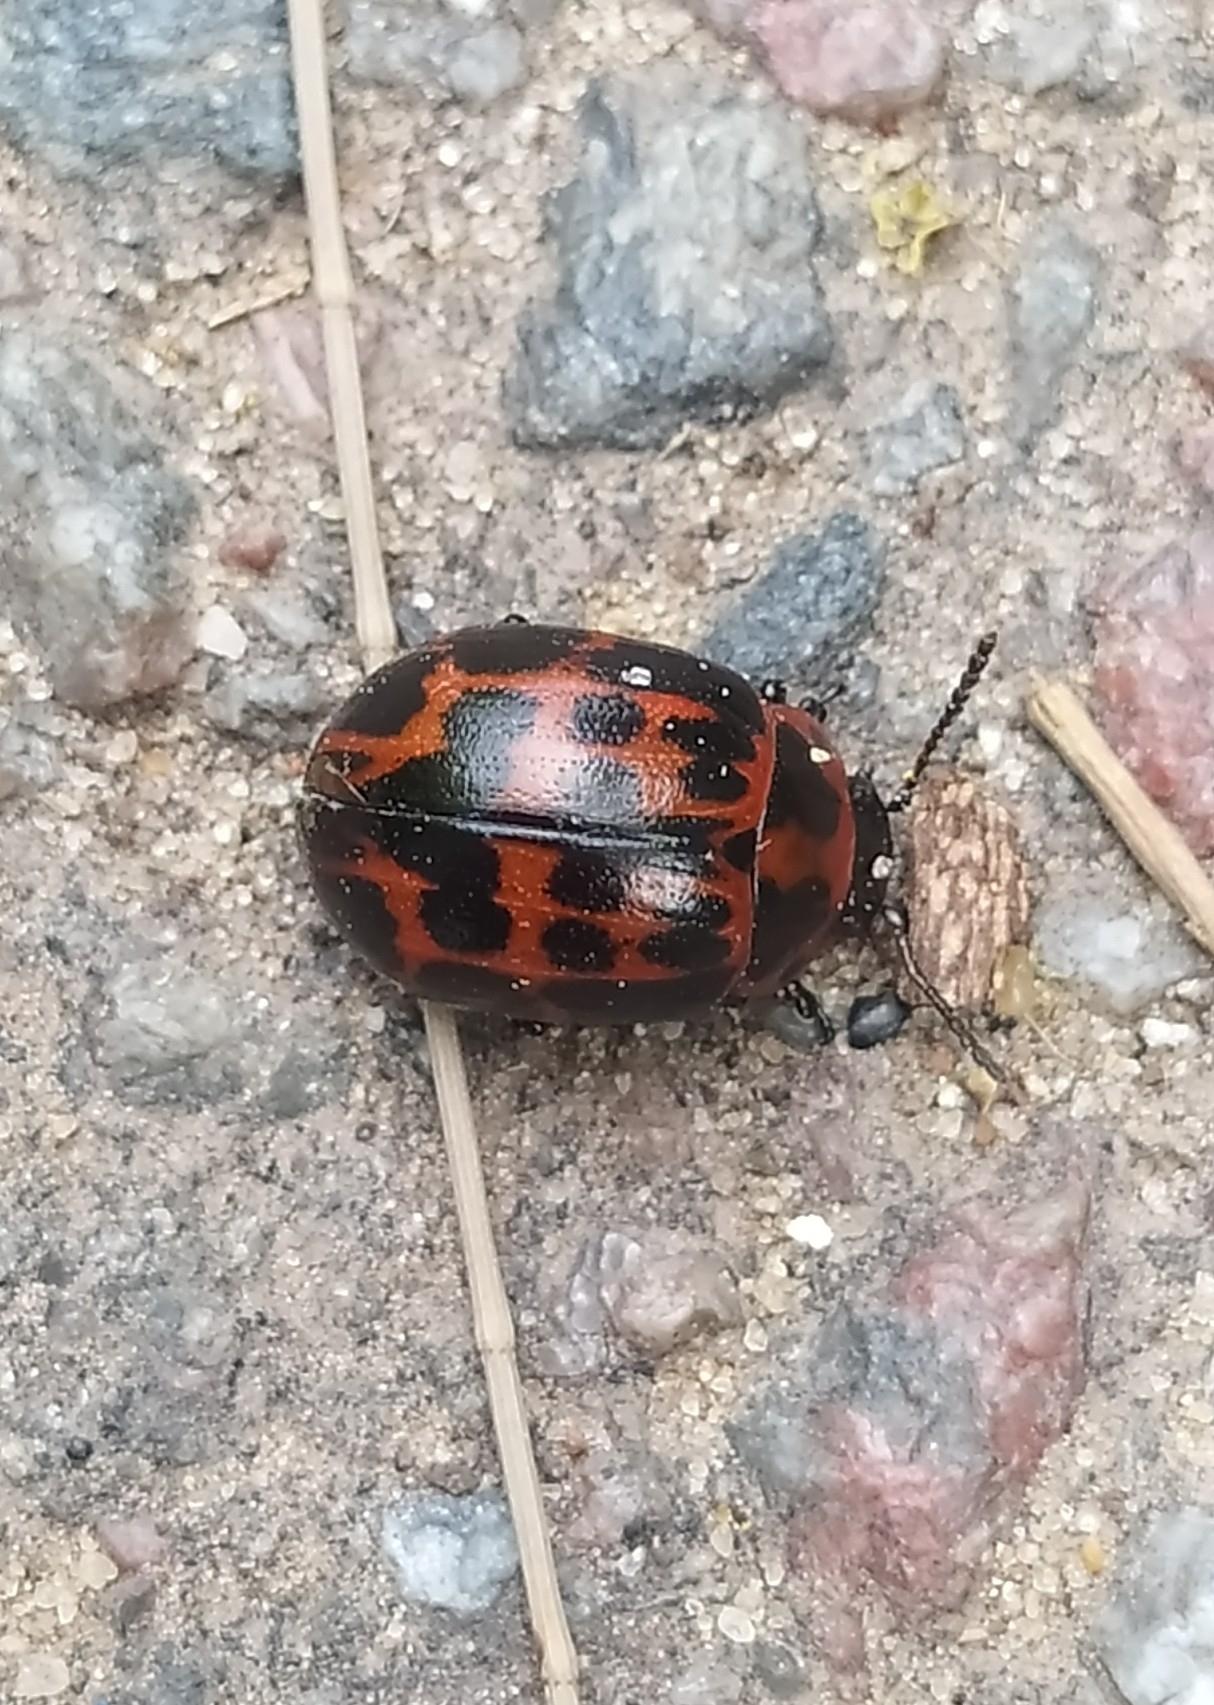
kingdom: Animalia
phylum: Arthropoda
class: Insecta
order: Coleoptera
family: Chrysomelidae
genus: Platyphora
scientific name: Platyphora
